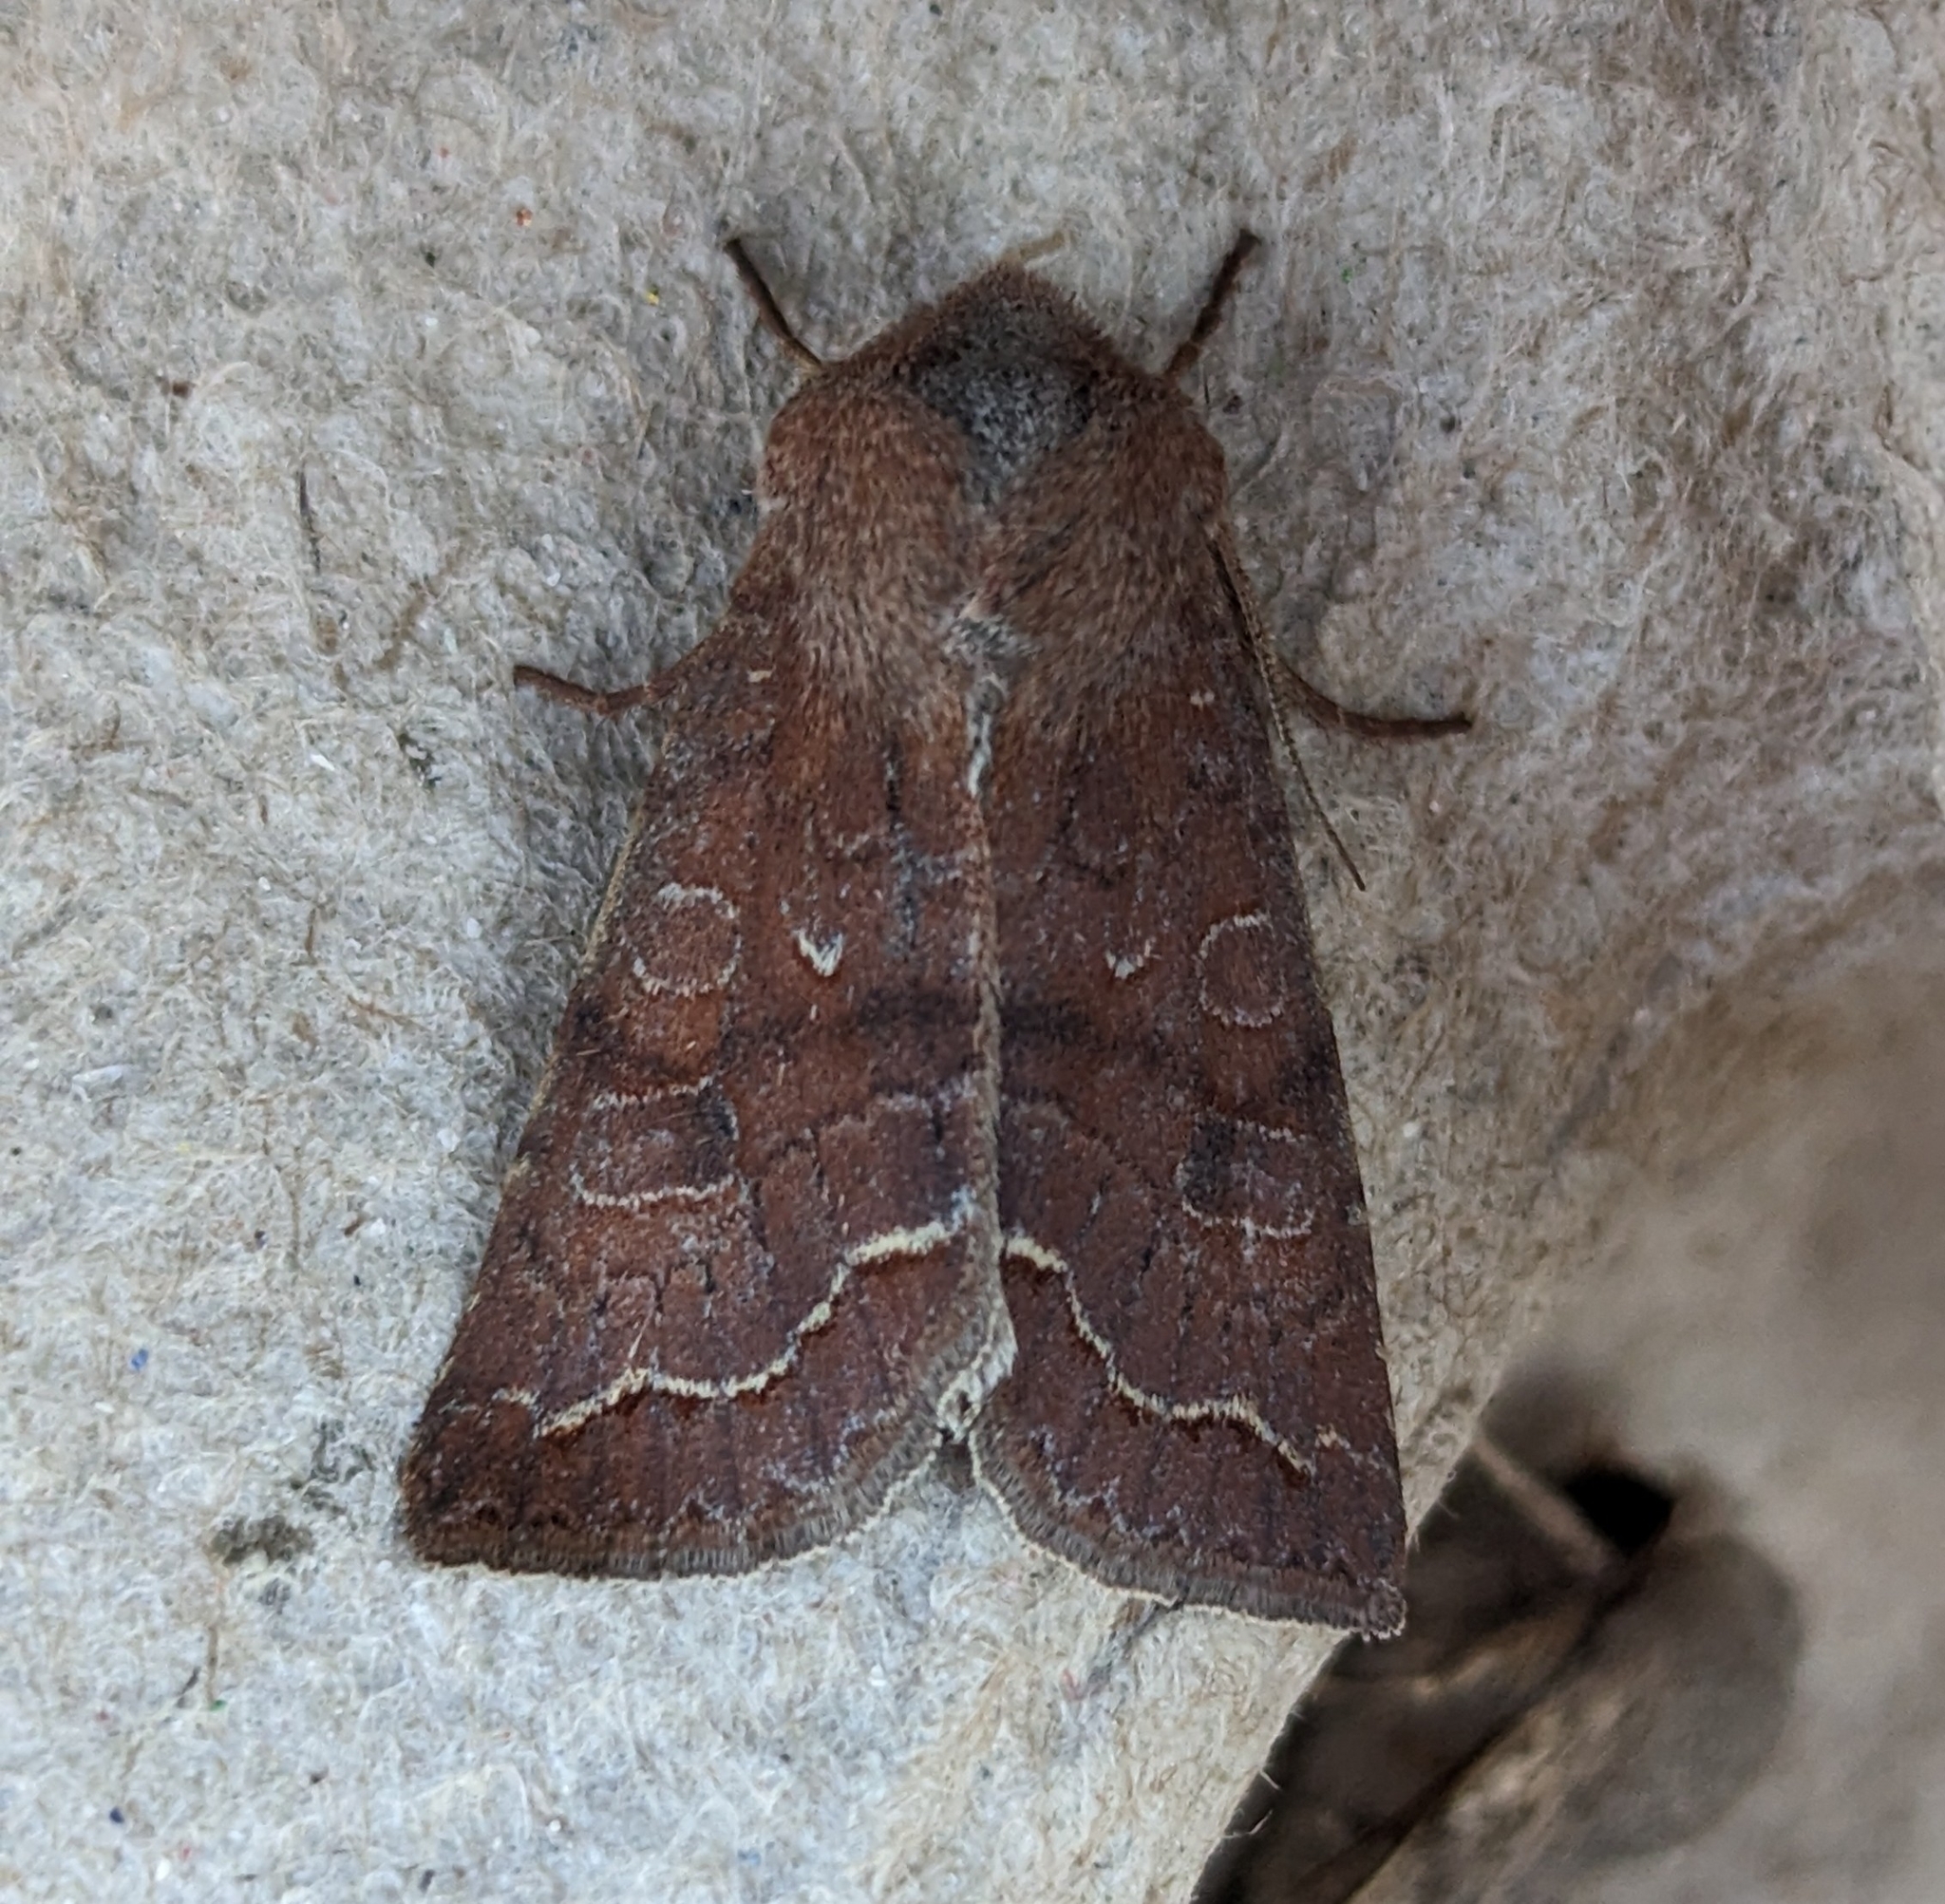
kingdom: Animalia
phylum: Arthropoda
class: Insecta
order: Lepidoptera
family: Noctuidae
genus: Orthosia
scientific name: Orthosia revicta
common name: Rusty whitesided caterpillar
